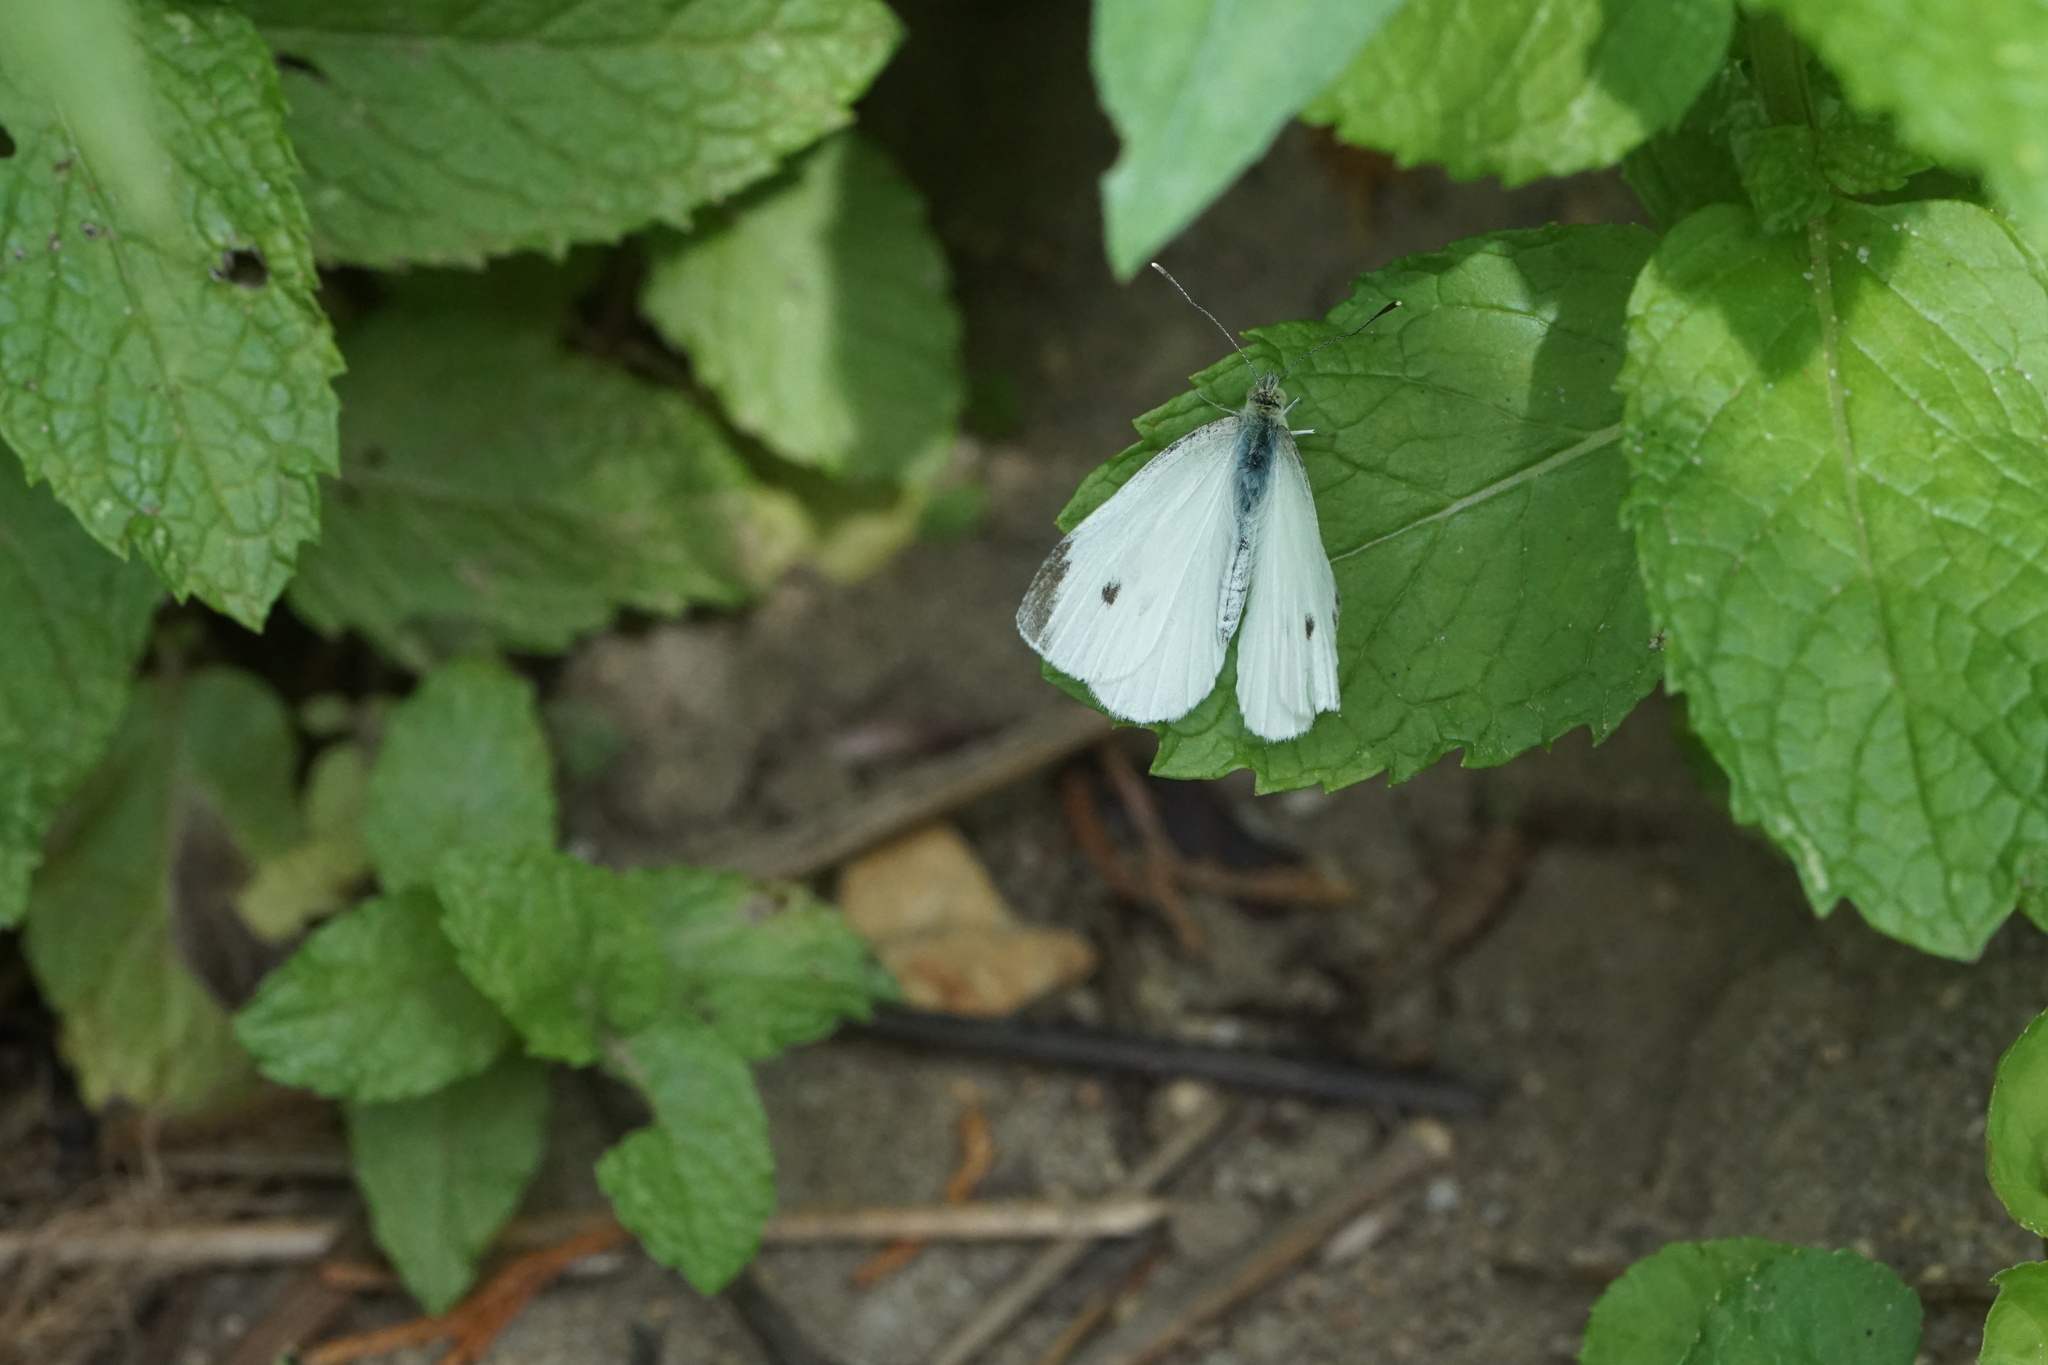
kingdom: Animalia
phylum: Arthropoda
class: Insecta
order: Lepidoptera
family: Pieridae
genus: Pieris
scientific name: Pieris rapae
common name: Small white
